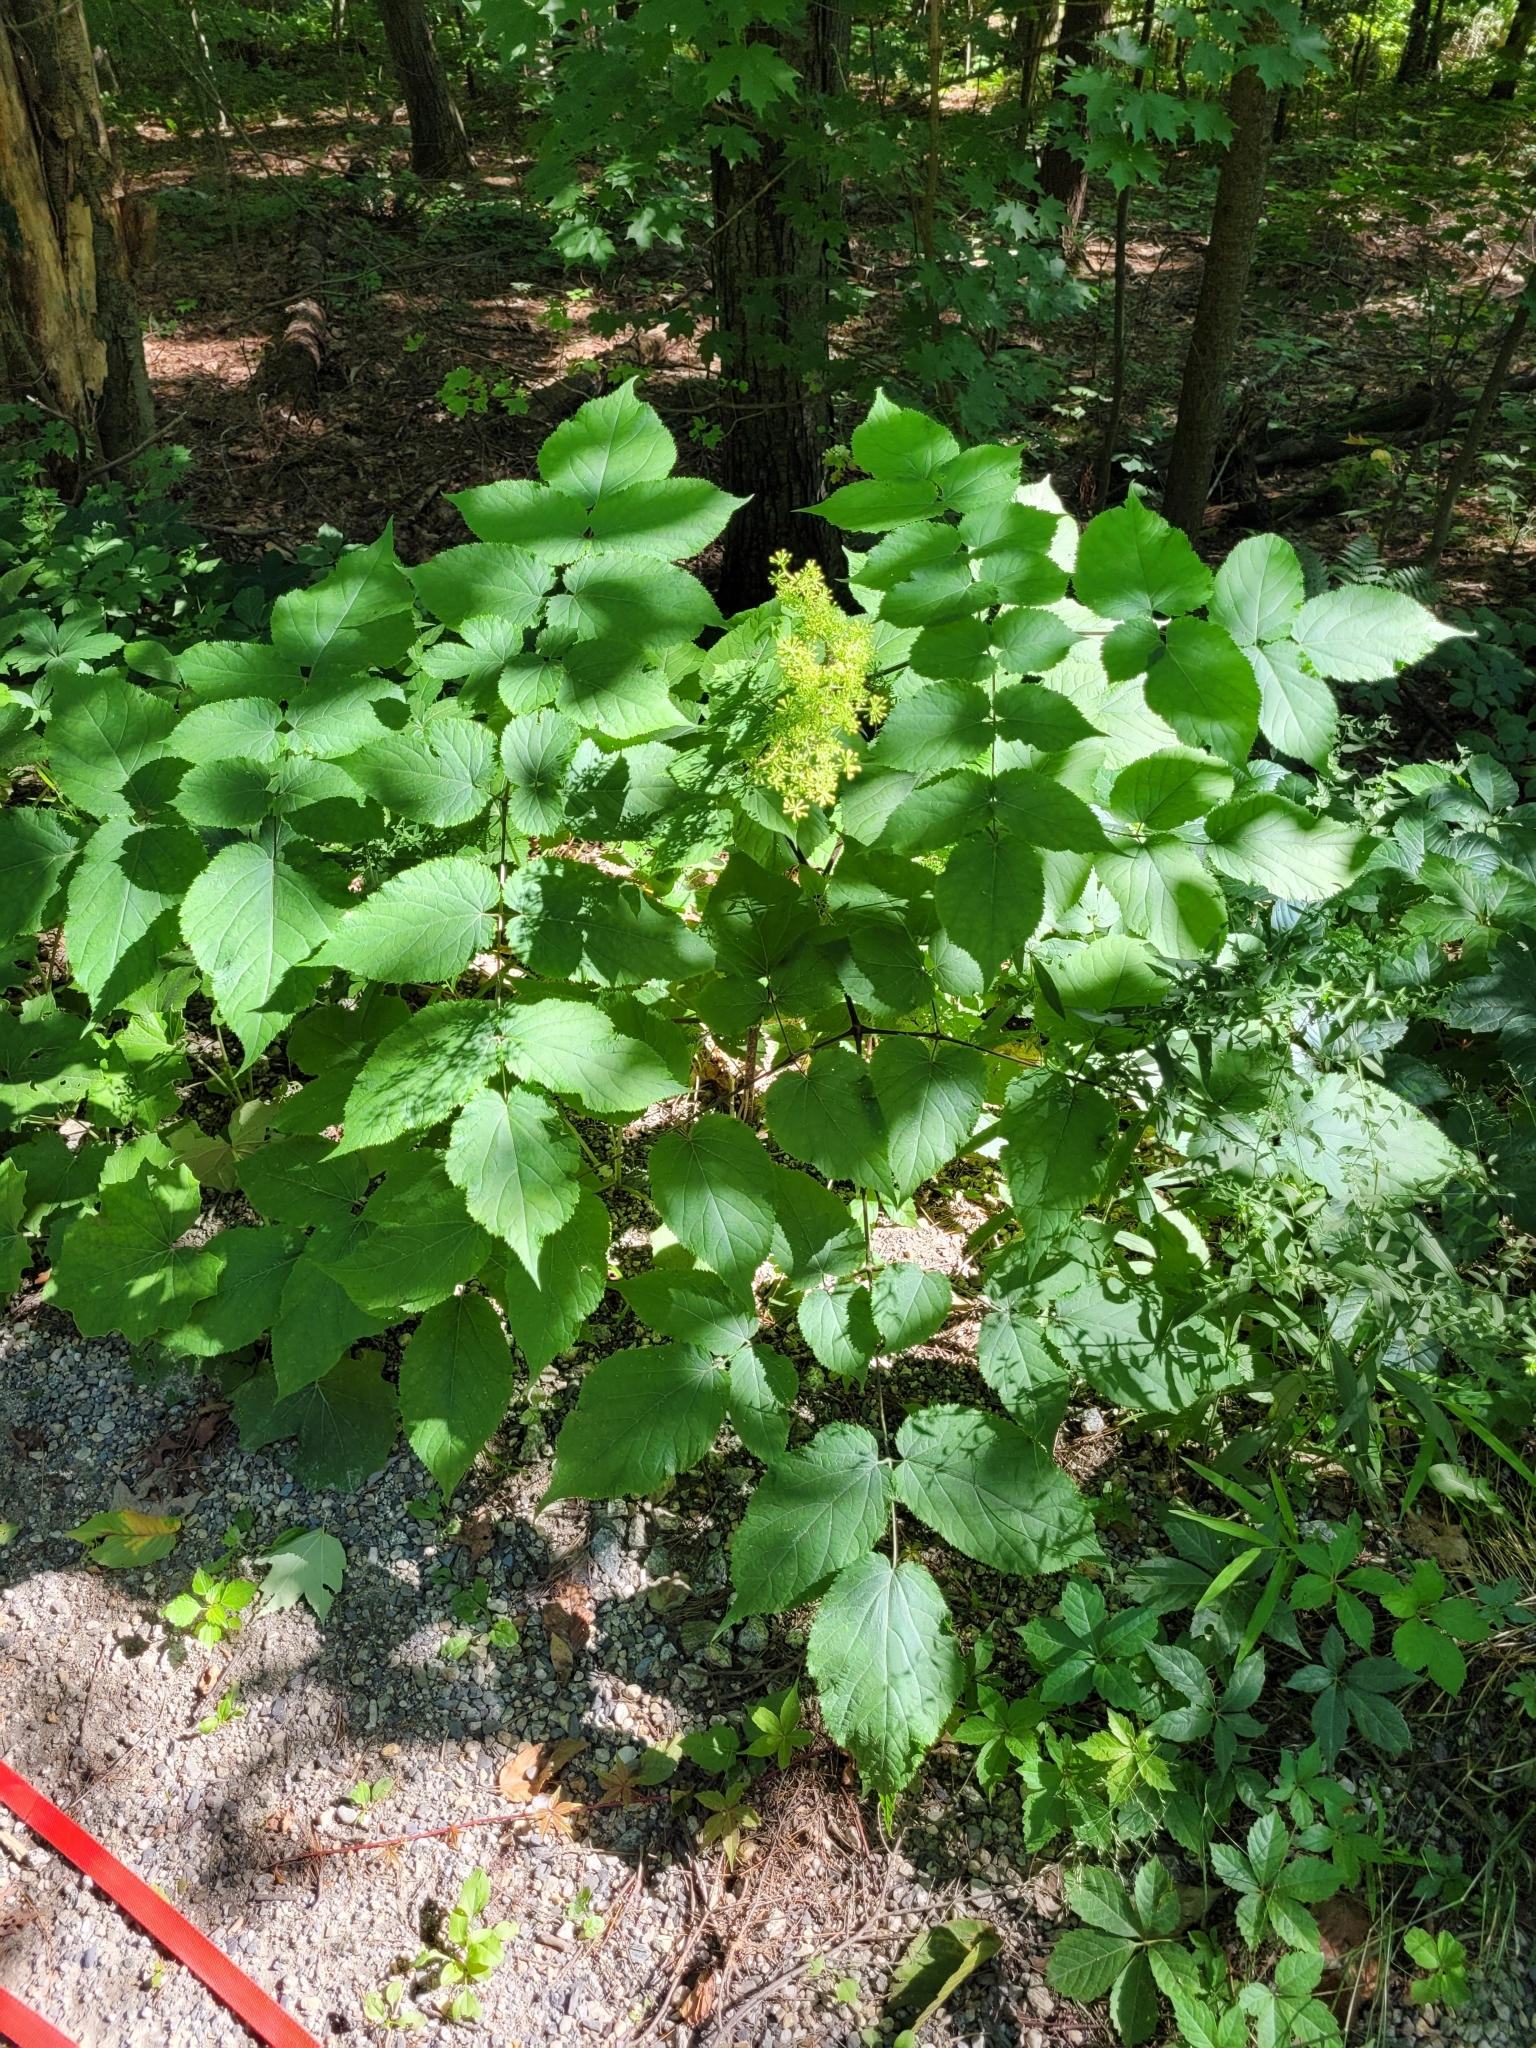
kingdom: Plantae
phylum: Tracheophyta
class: Magnoliopsida
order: Apiales
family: Araliaceae
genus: Aralia
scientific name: Aralia racemosa
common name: American-spikenard
